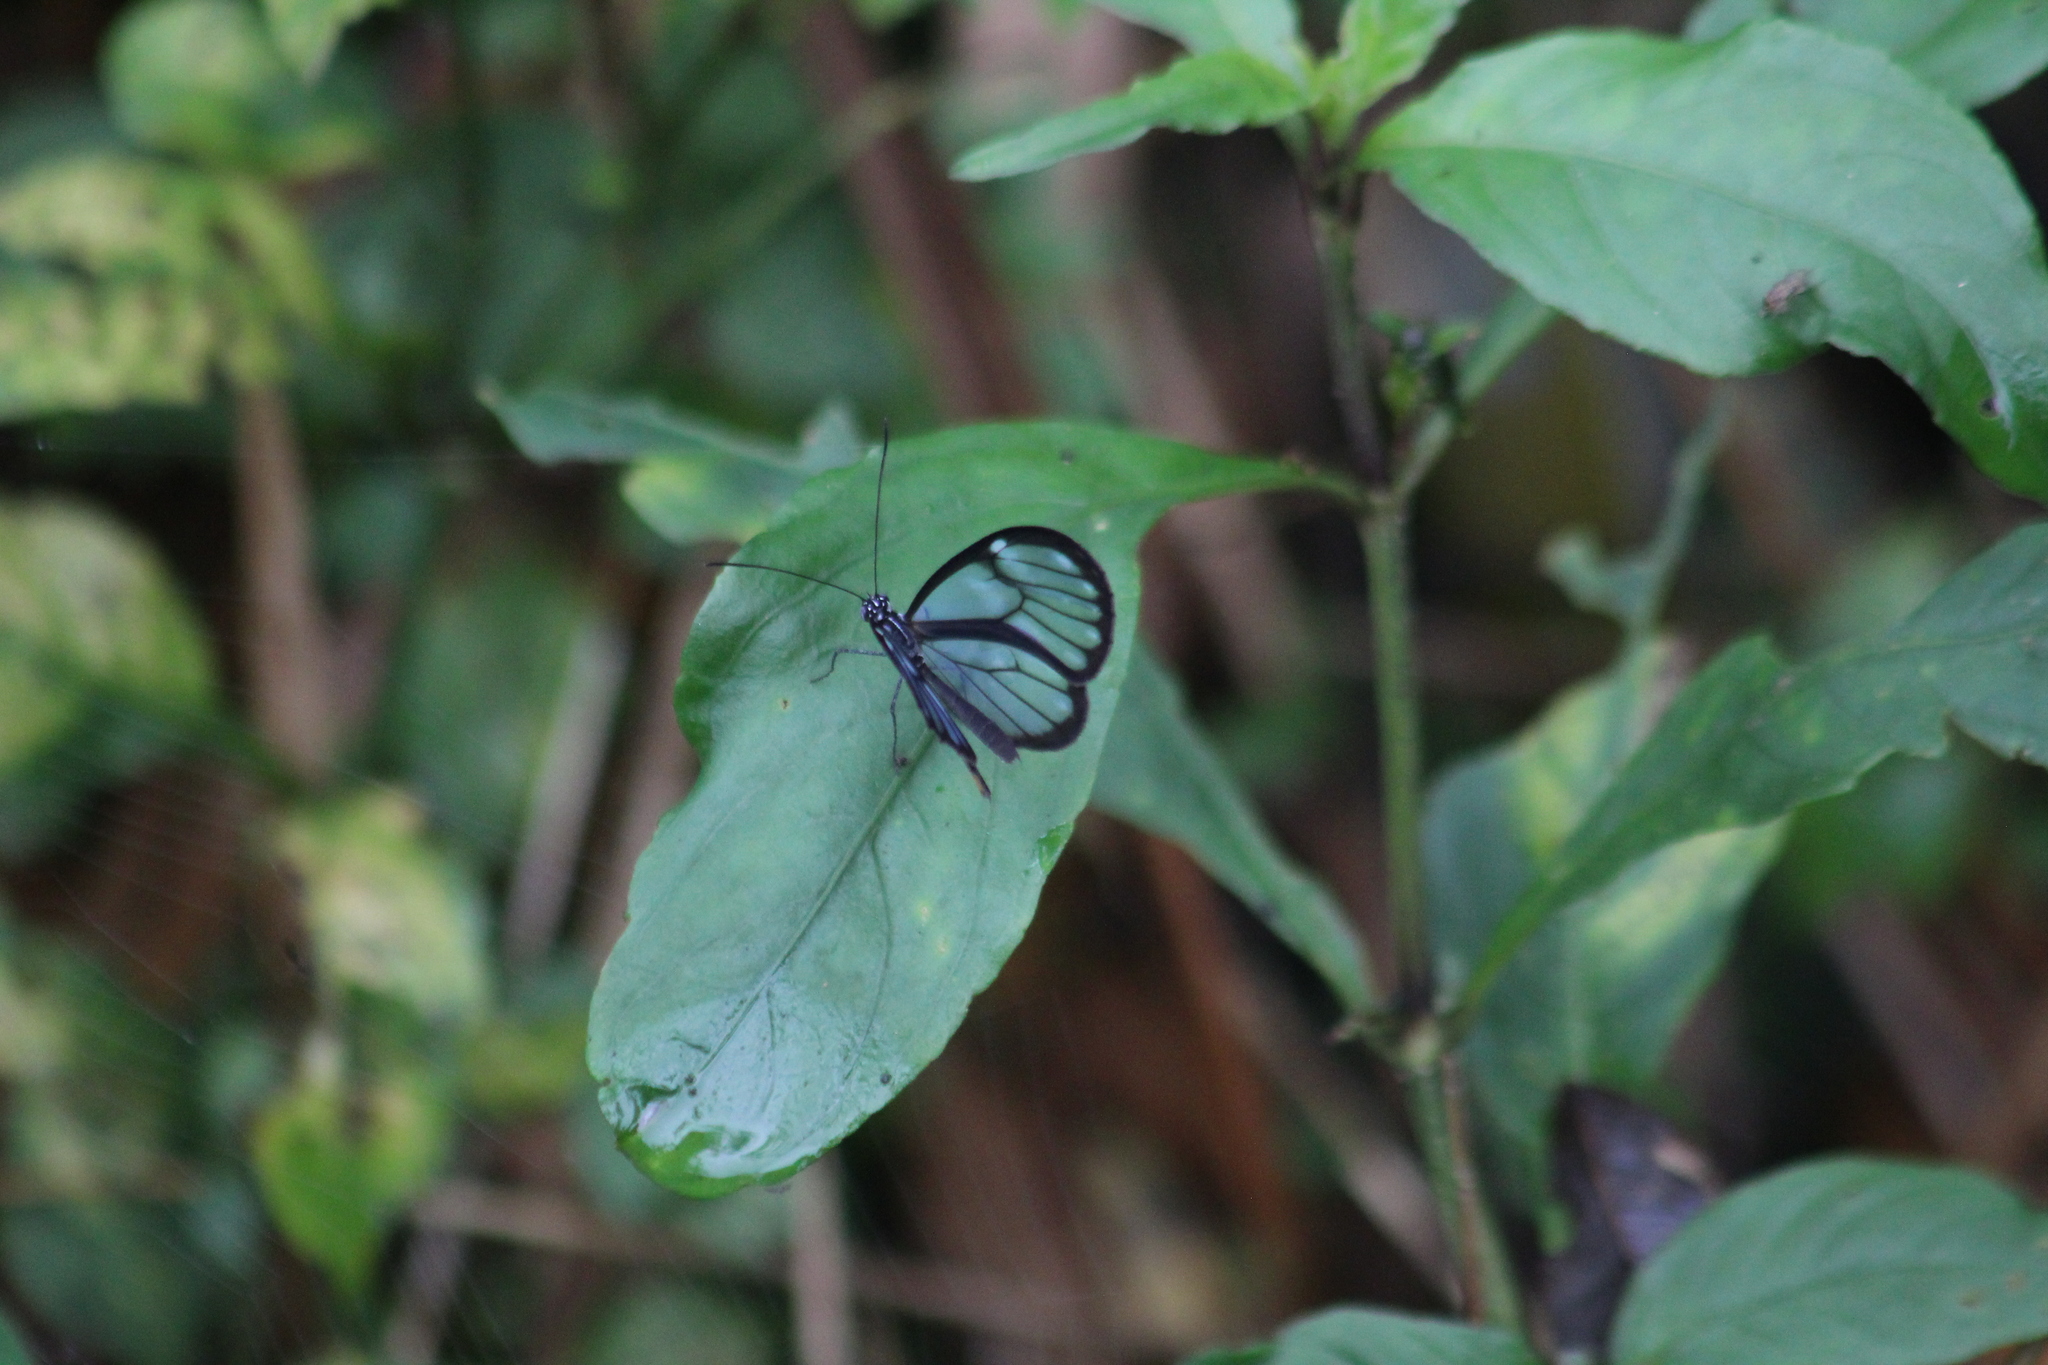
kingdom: Animalia
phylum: Arthropoda
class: Insecta
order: Lepidoptera
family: Nymphalidae
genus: Pseudoscada
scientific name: Pseudoscada timna
